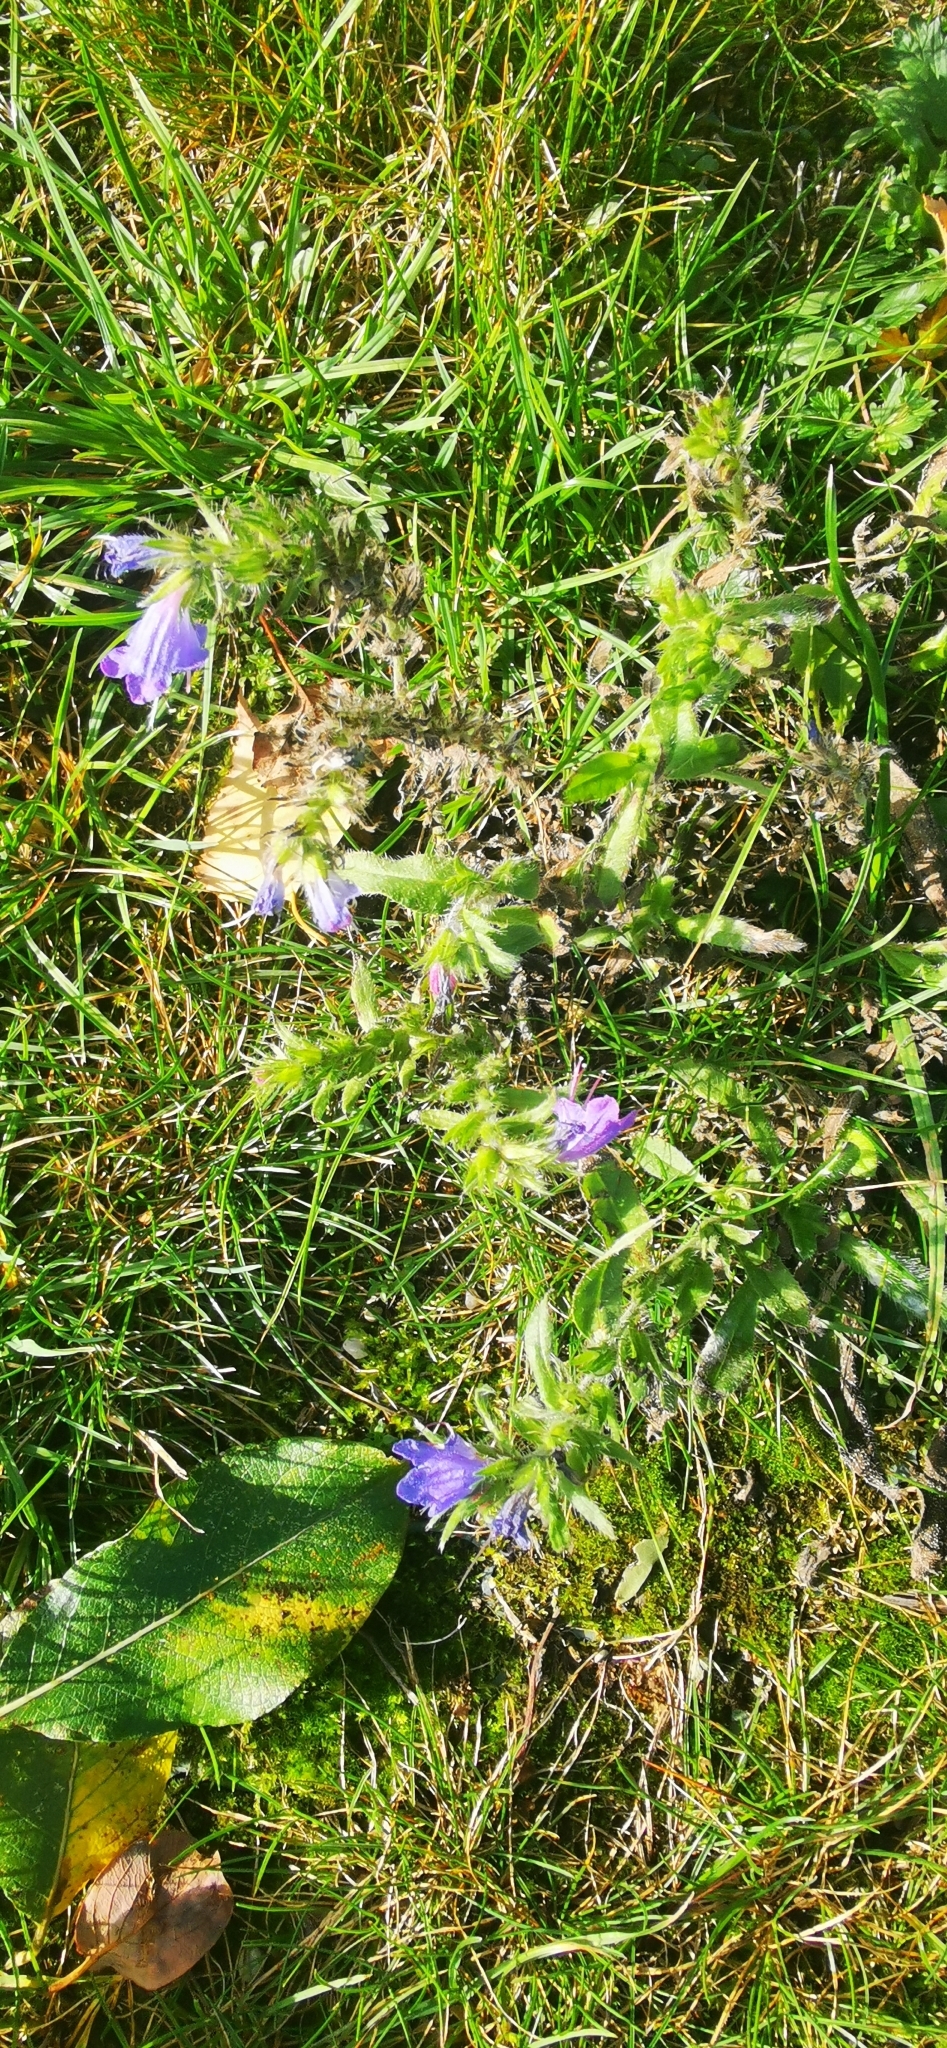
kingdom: Plantae
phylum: Tracheophyta
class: Magnoliopsida
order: Boraginales
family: Boraginaceae
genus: Echium
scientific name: Echium vulgare
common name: Common viper's bugloss
